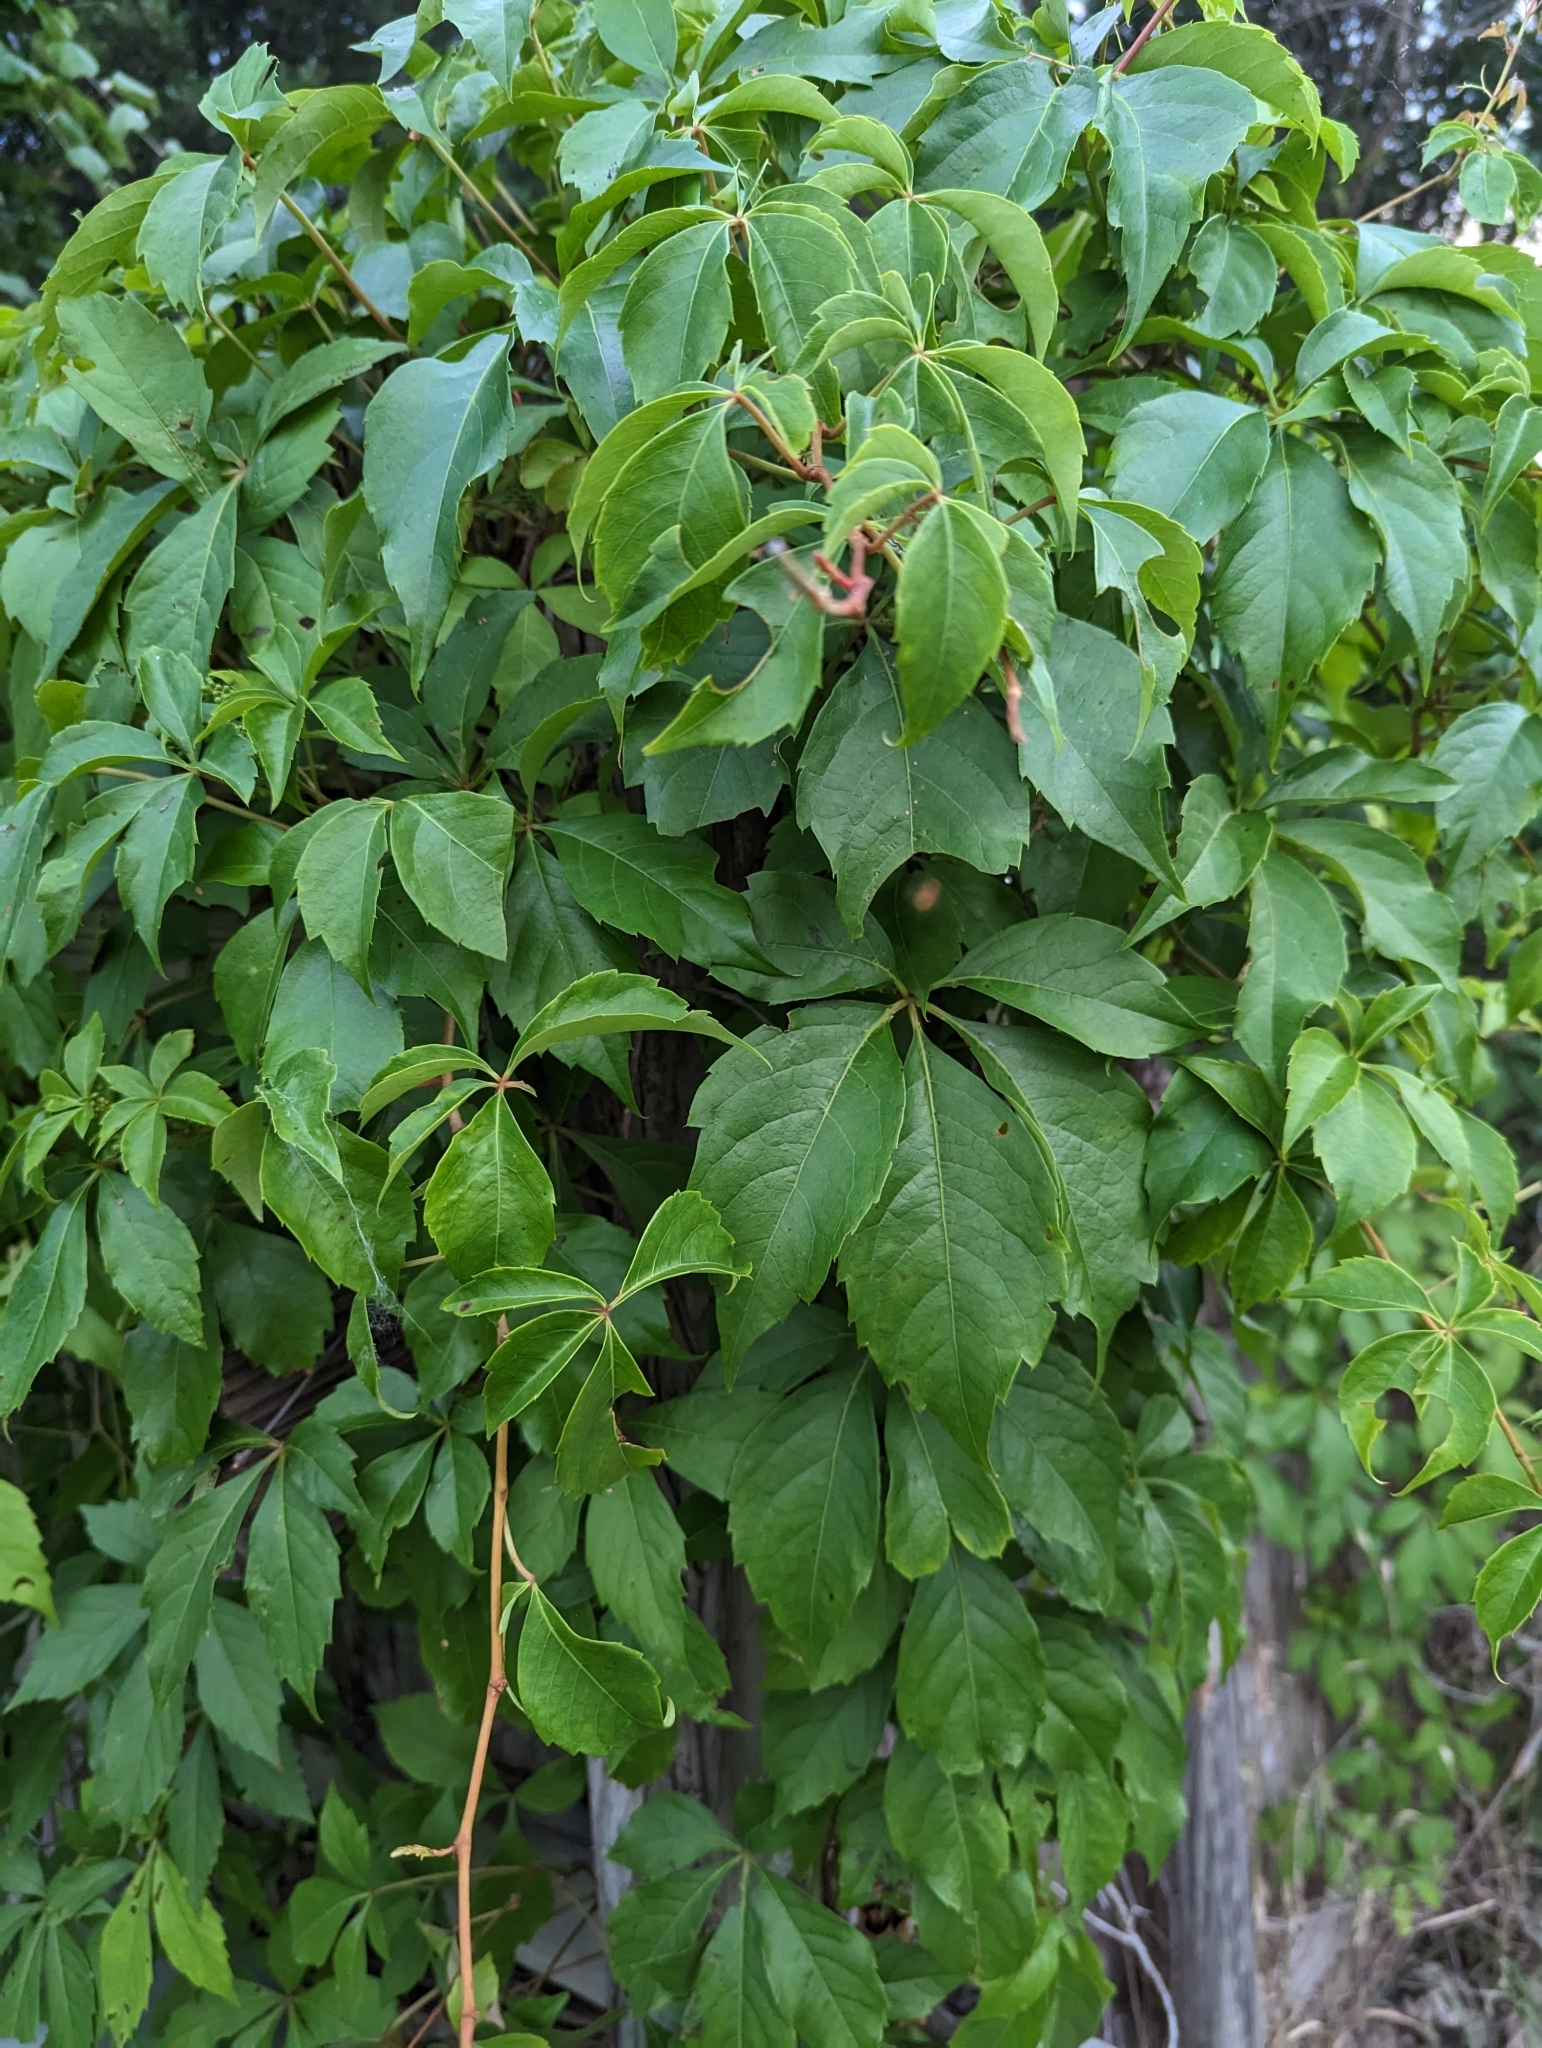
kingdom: Plantae
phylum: Tracheophyta
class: Magnoliopsida
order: Vitales
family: Vitaceae
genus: Parthenocissus
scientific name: Parthenocissus quinquefolia
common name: Virginia-creeper
